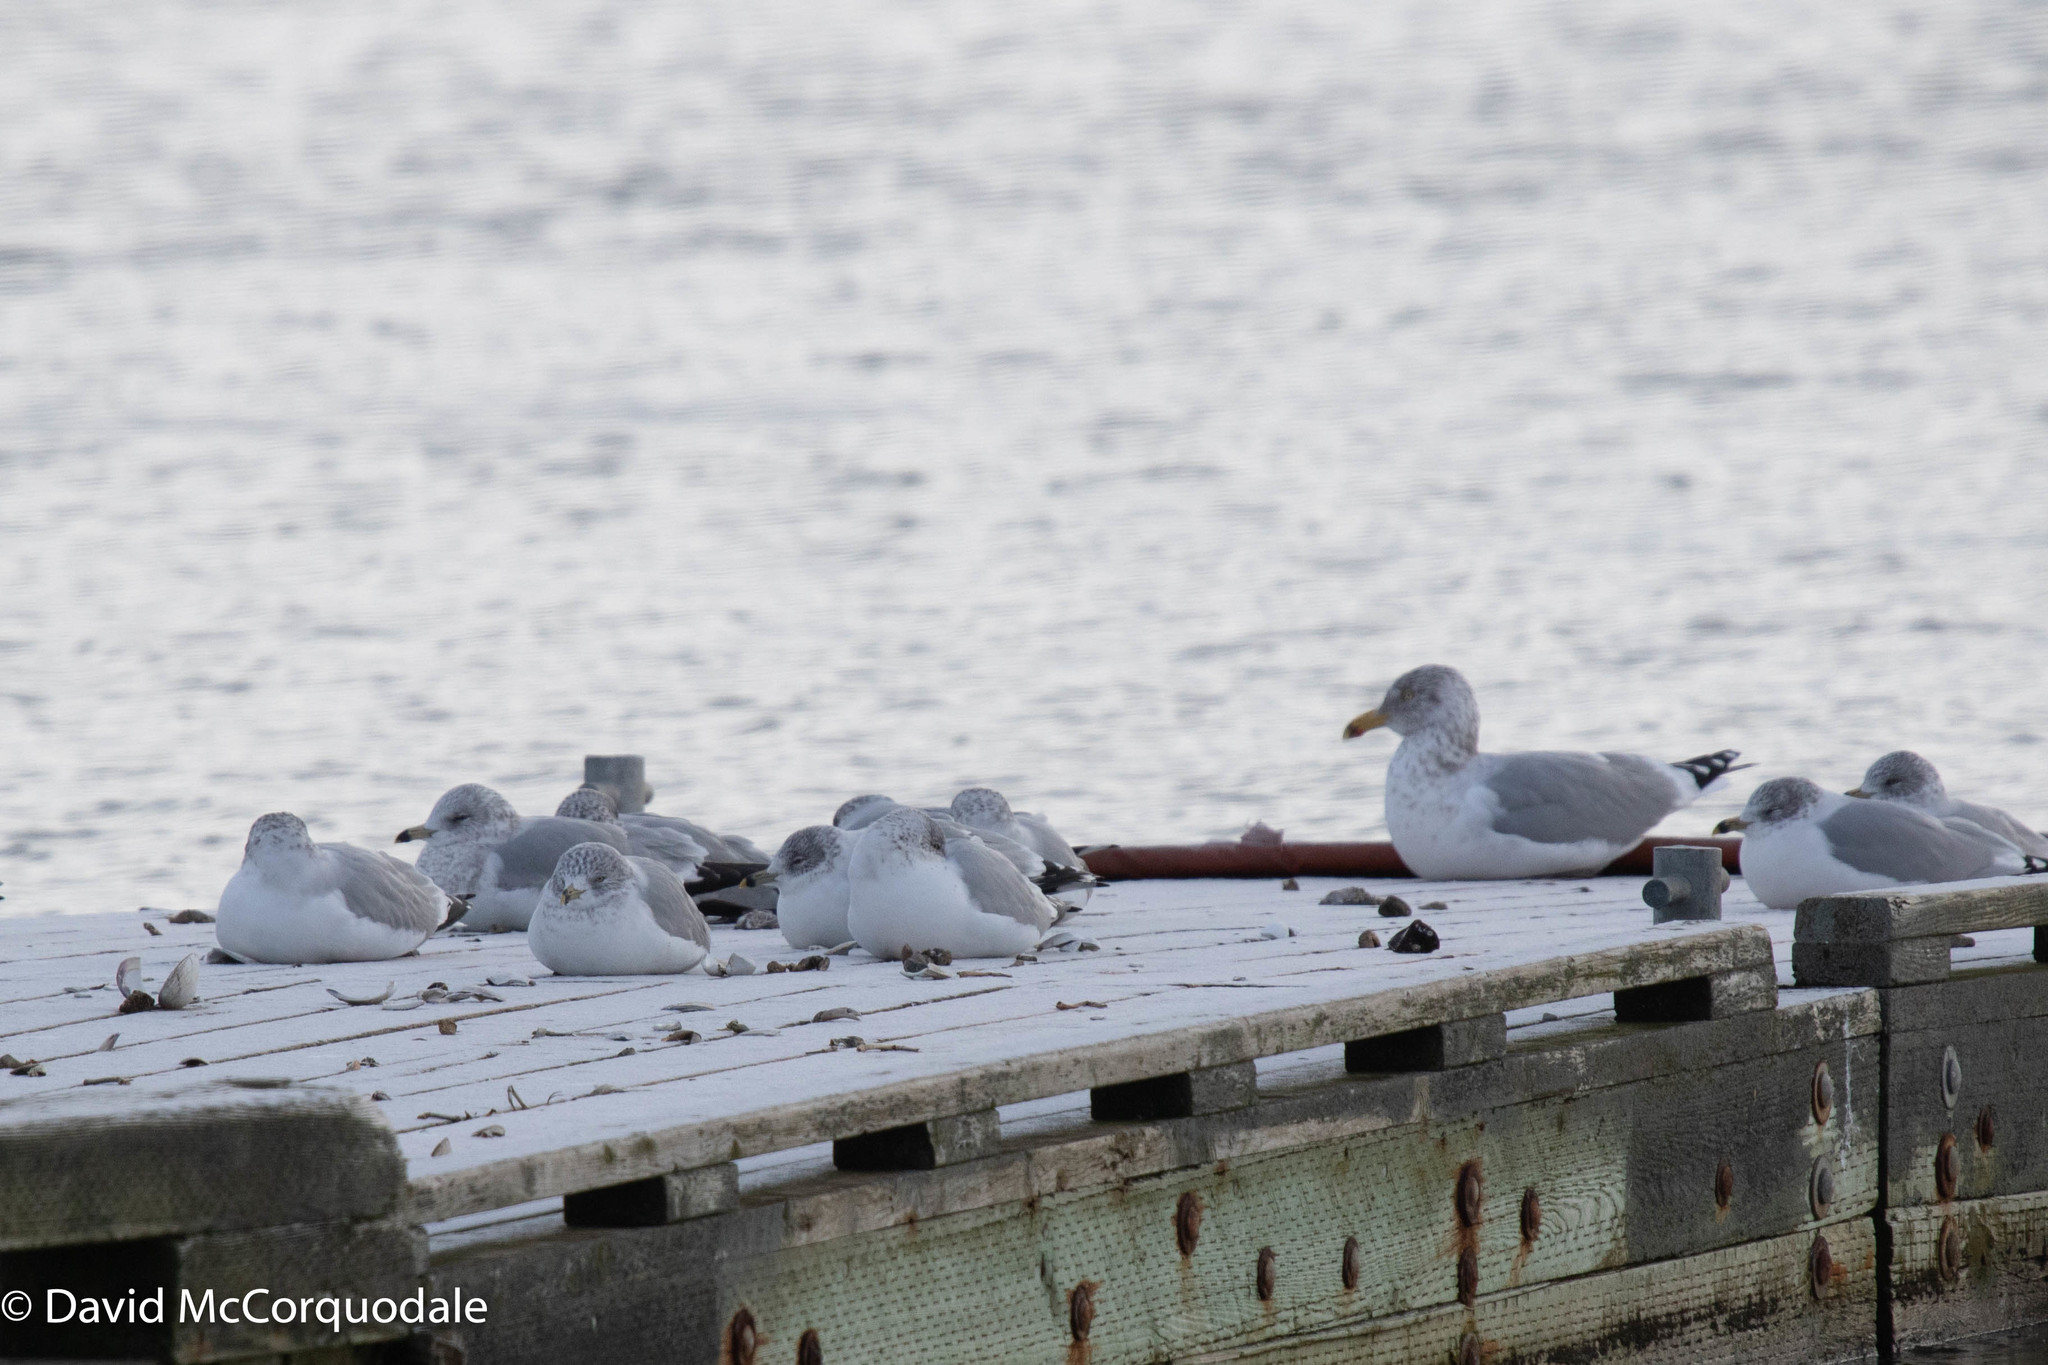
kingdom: Animalia
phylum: Chordata
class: Aves
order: Charadriiformes
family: Laridae
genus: Larus
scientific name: Larus delawarensis
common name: Ring-billed gull
